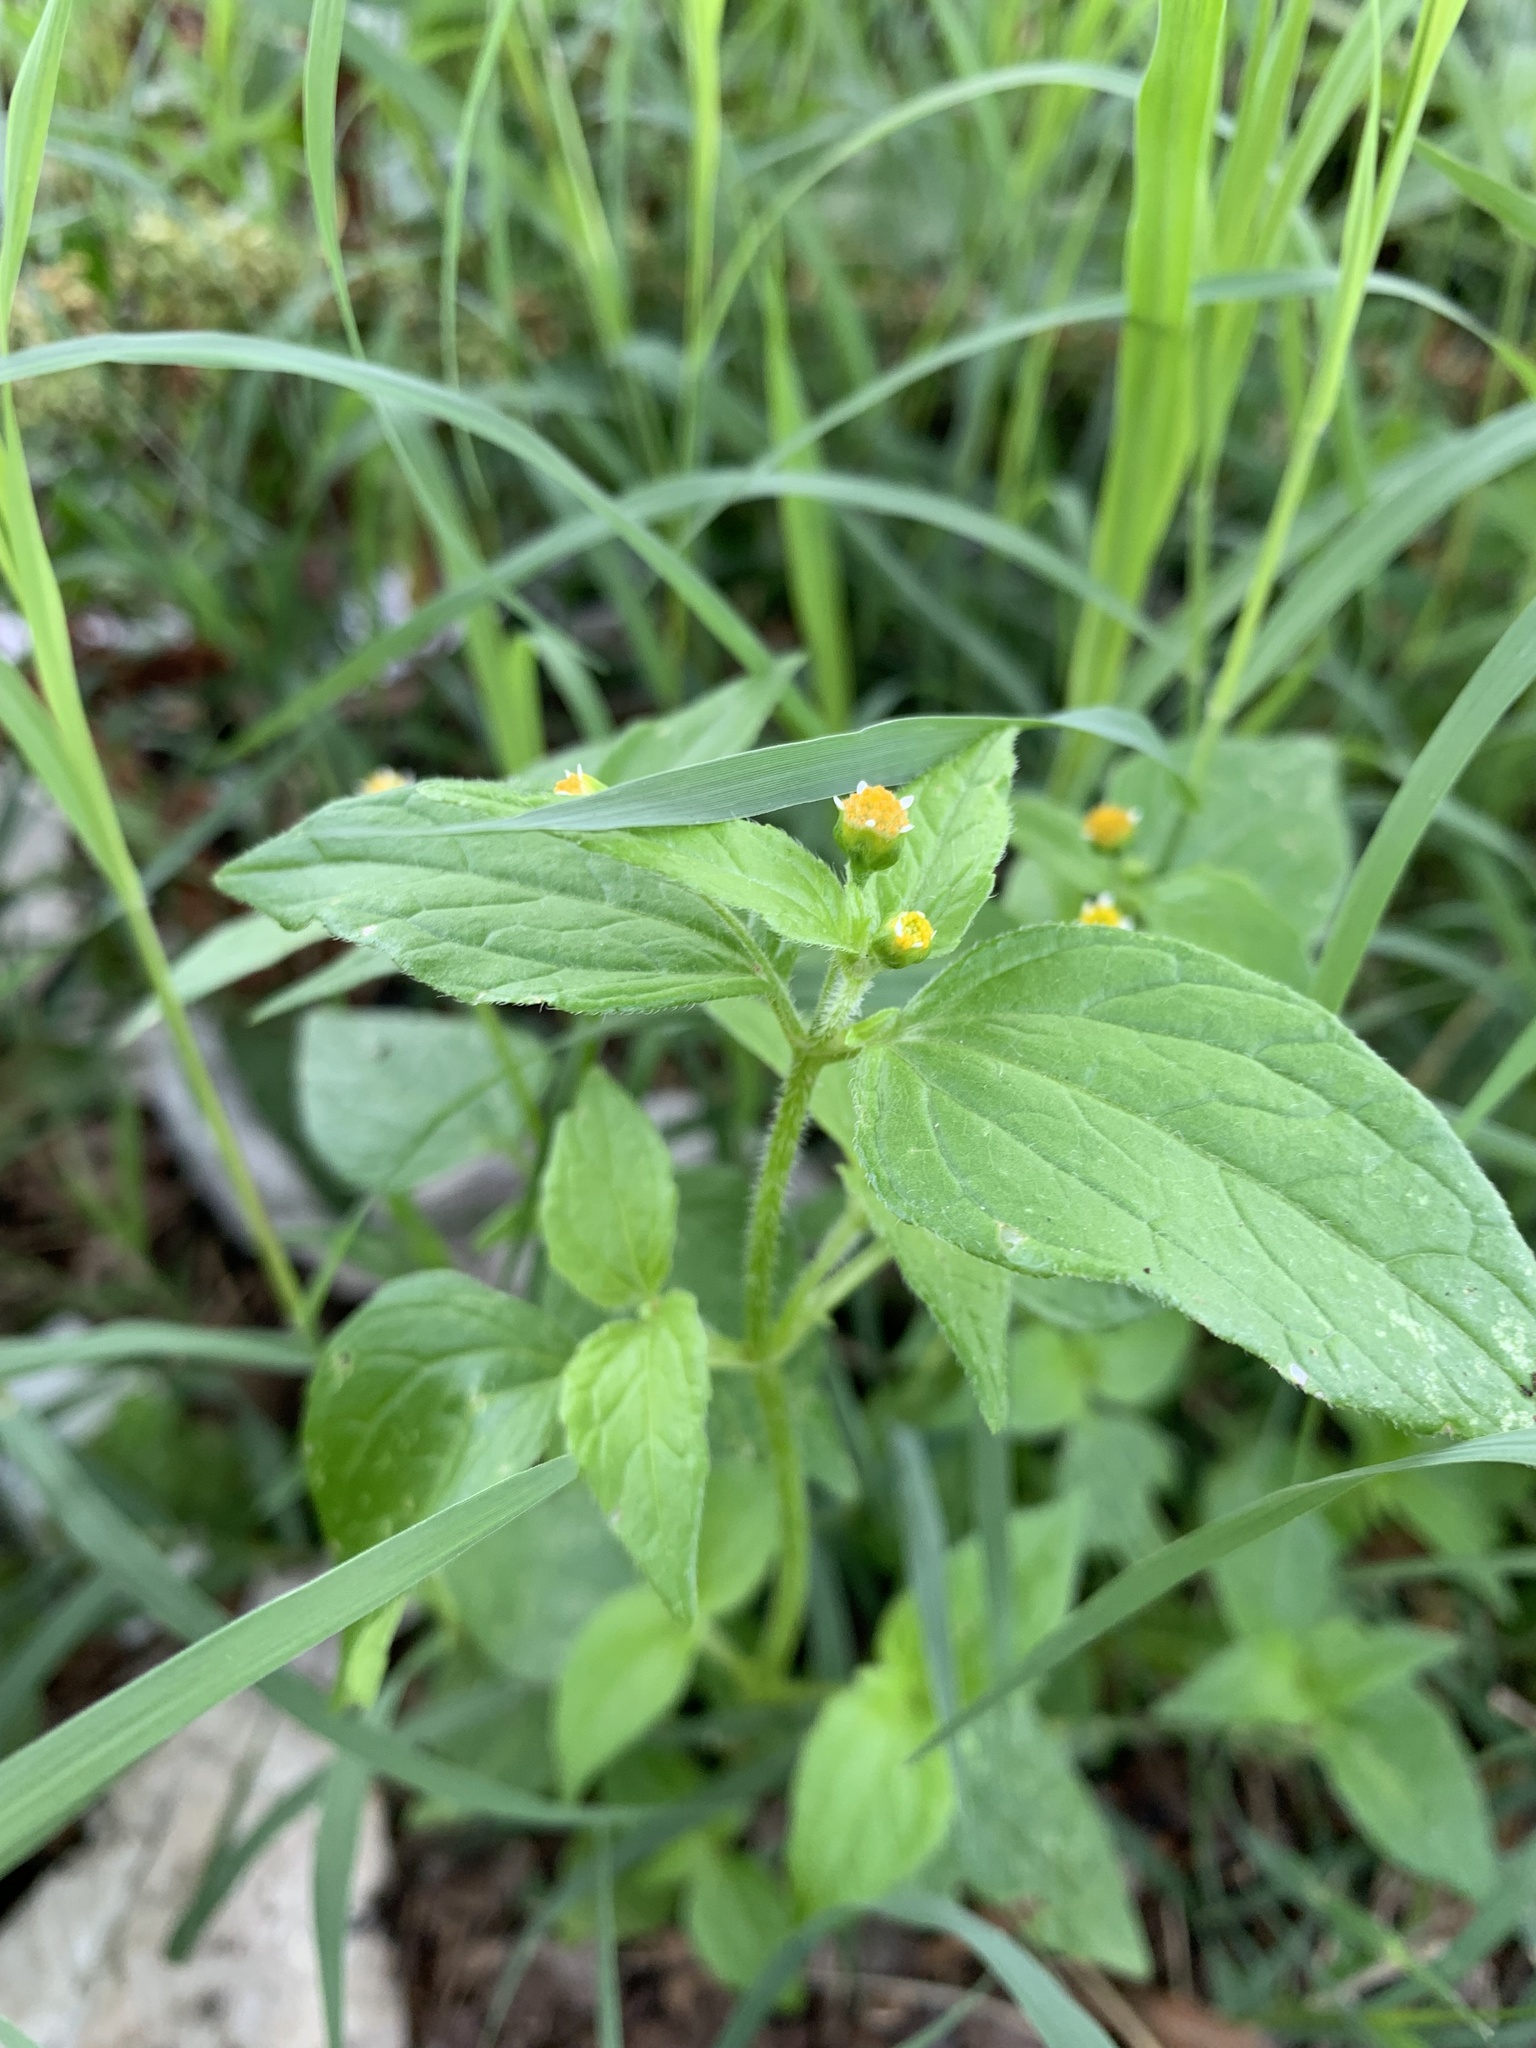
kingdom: Plantae
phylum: Tracheophyta
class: Magnoliopsida
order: Asterales
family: Asteraceae
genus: Galinsoga
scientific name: Galinsoga quadriradiata
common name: Shaggy soldier
